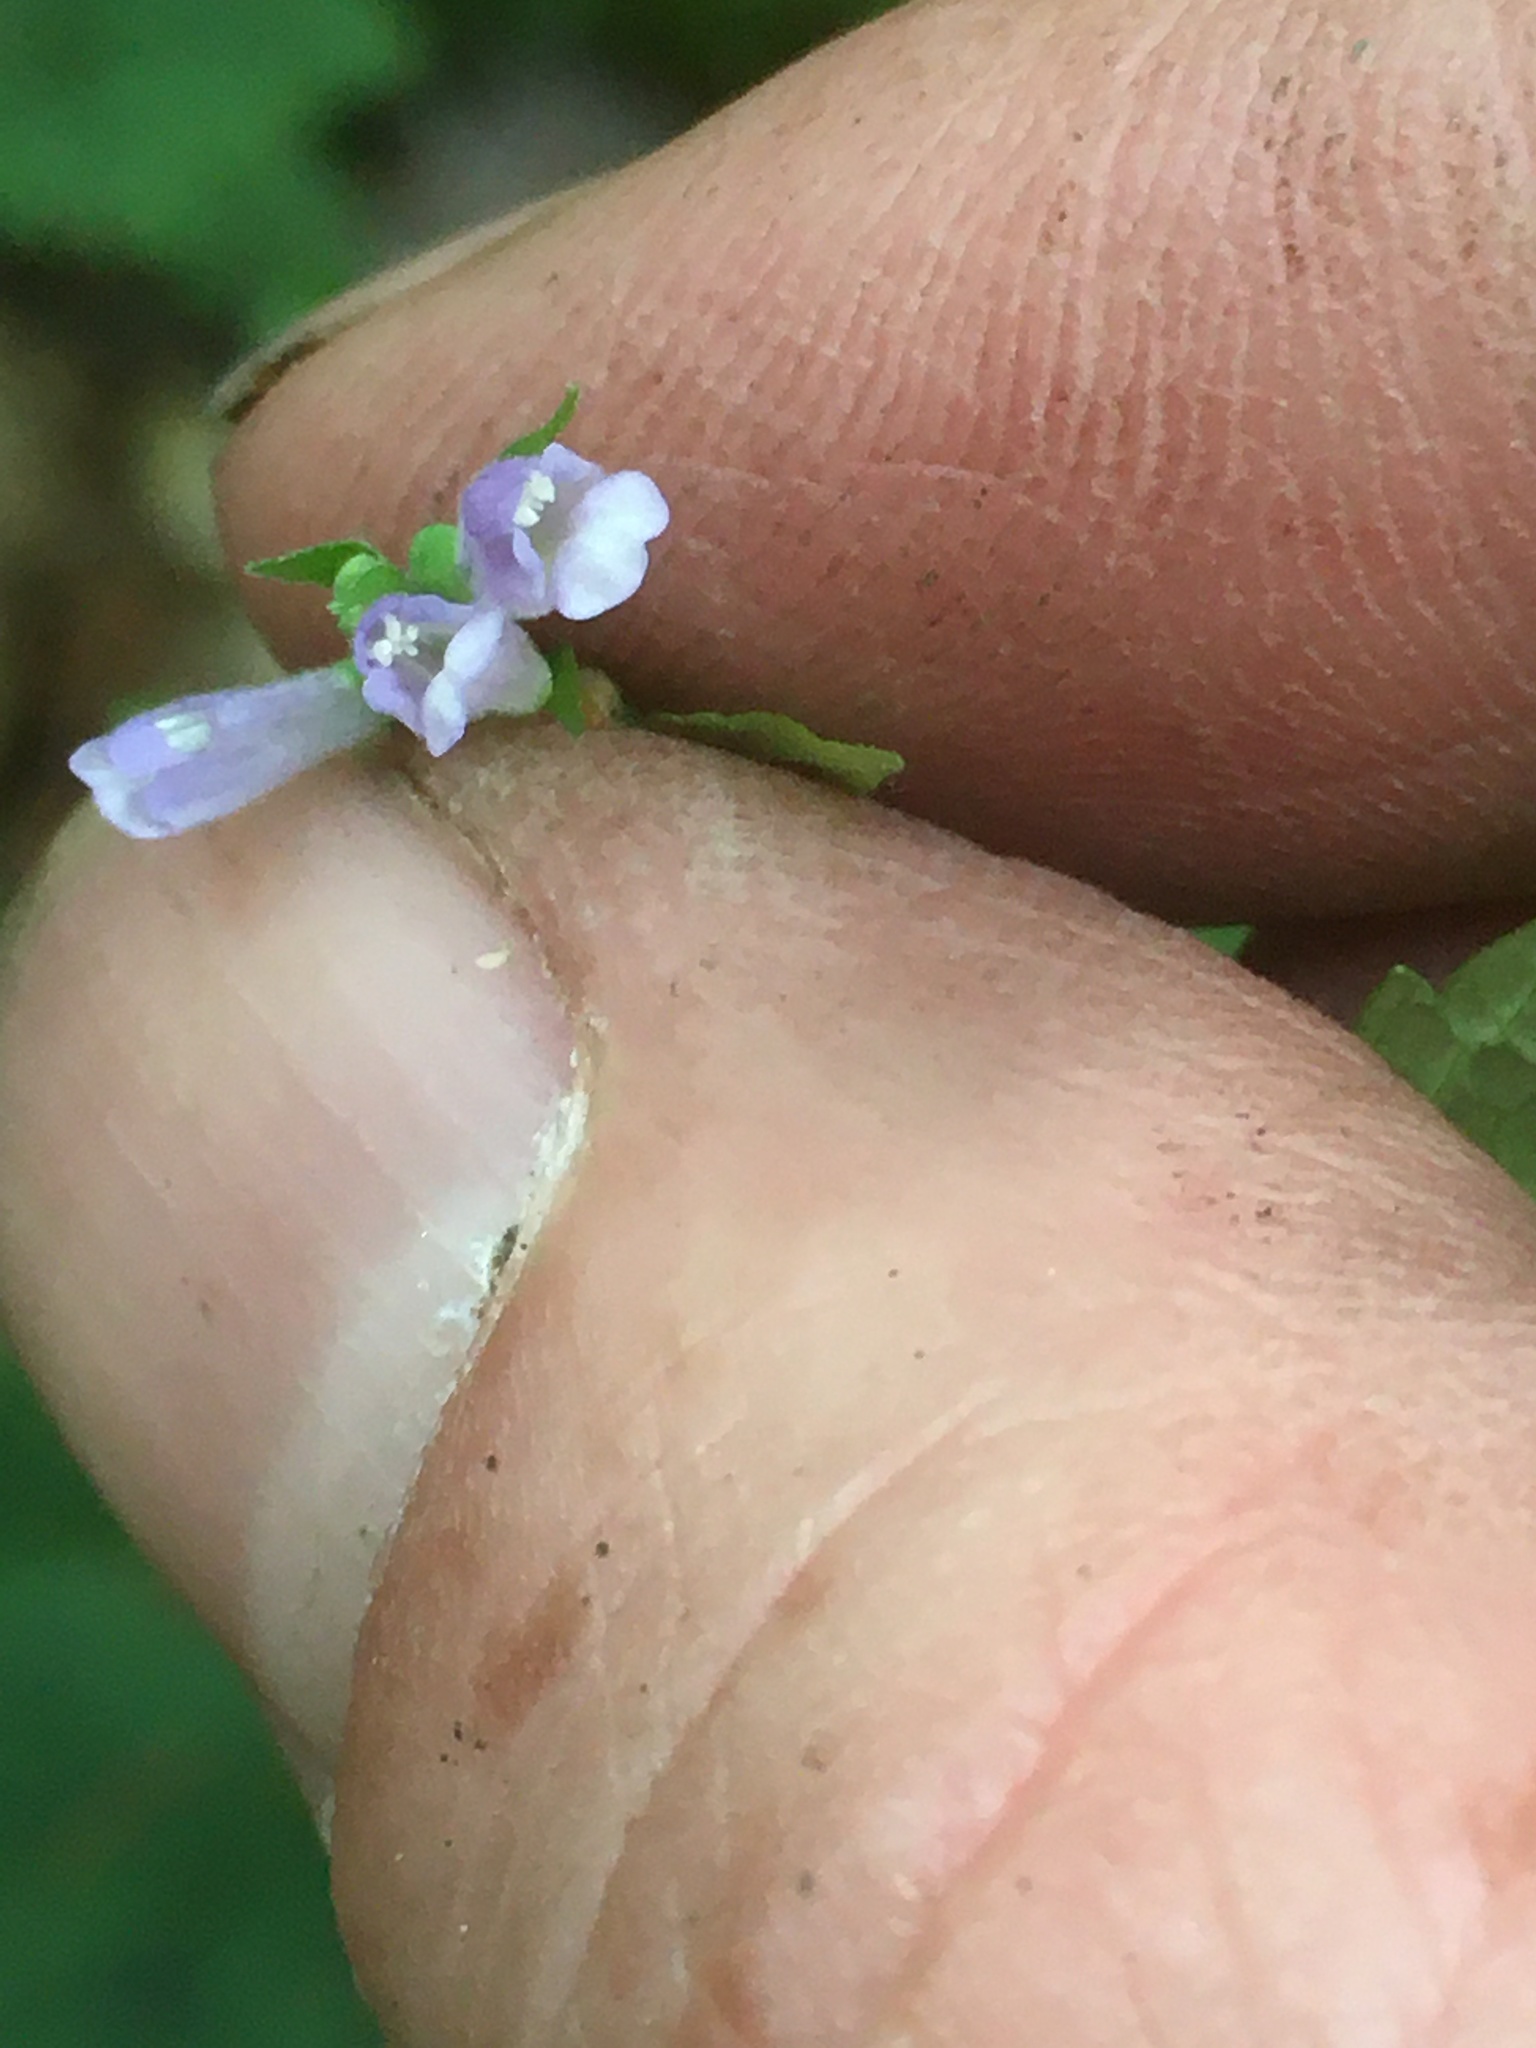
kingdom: Plantae
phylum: Tracheophyta
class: Magnoliopsida
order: Lamiales
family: Lamiaceae
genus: Scutellaria
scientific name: Scutellaria lateriflora
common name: Blue skullcap
